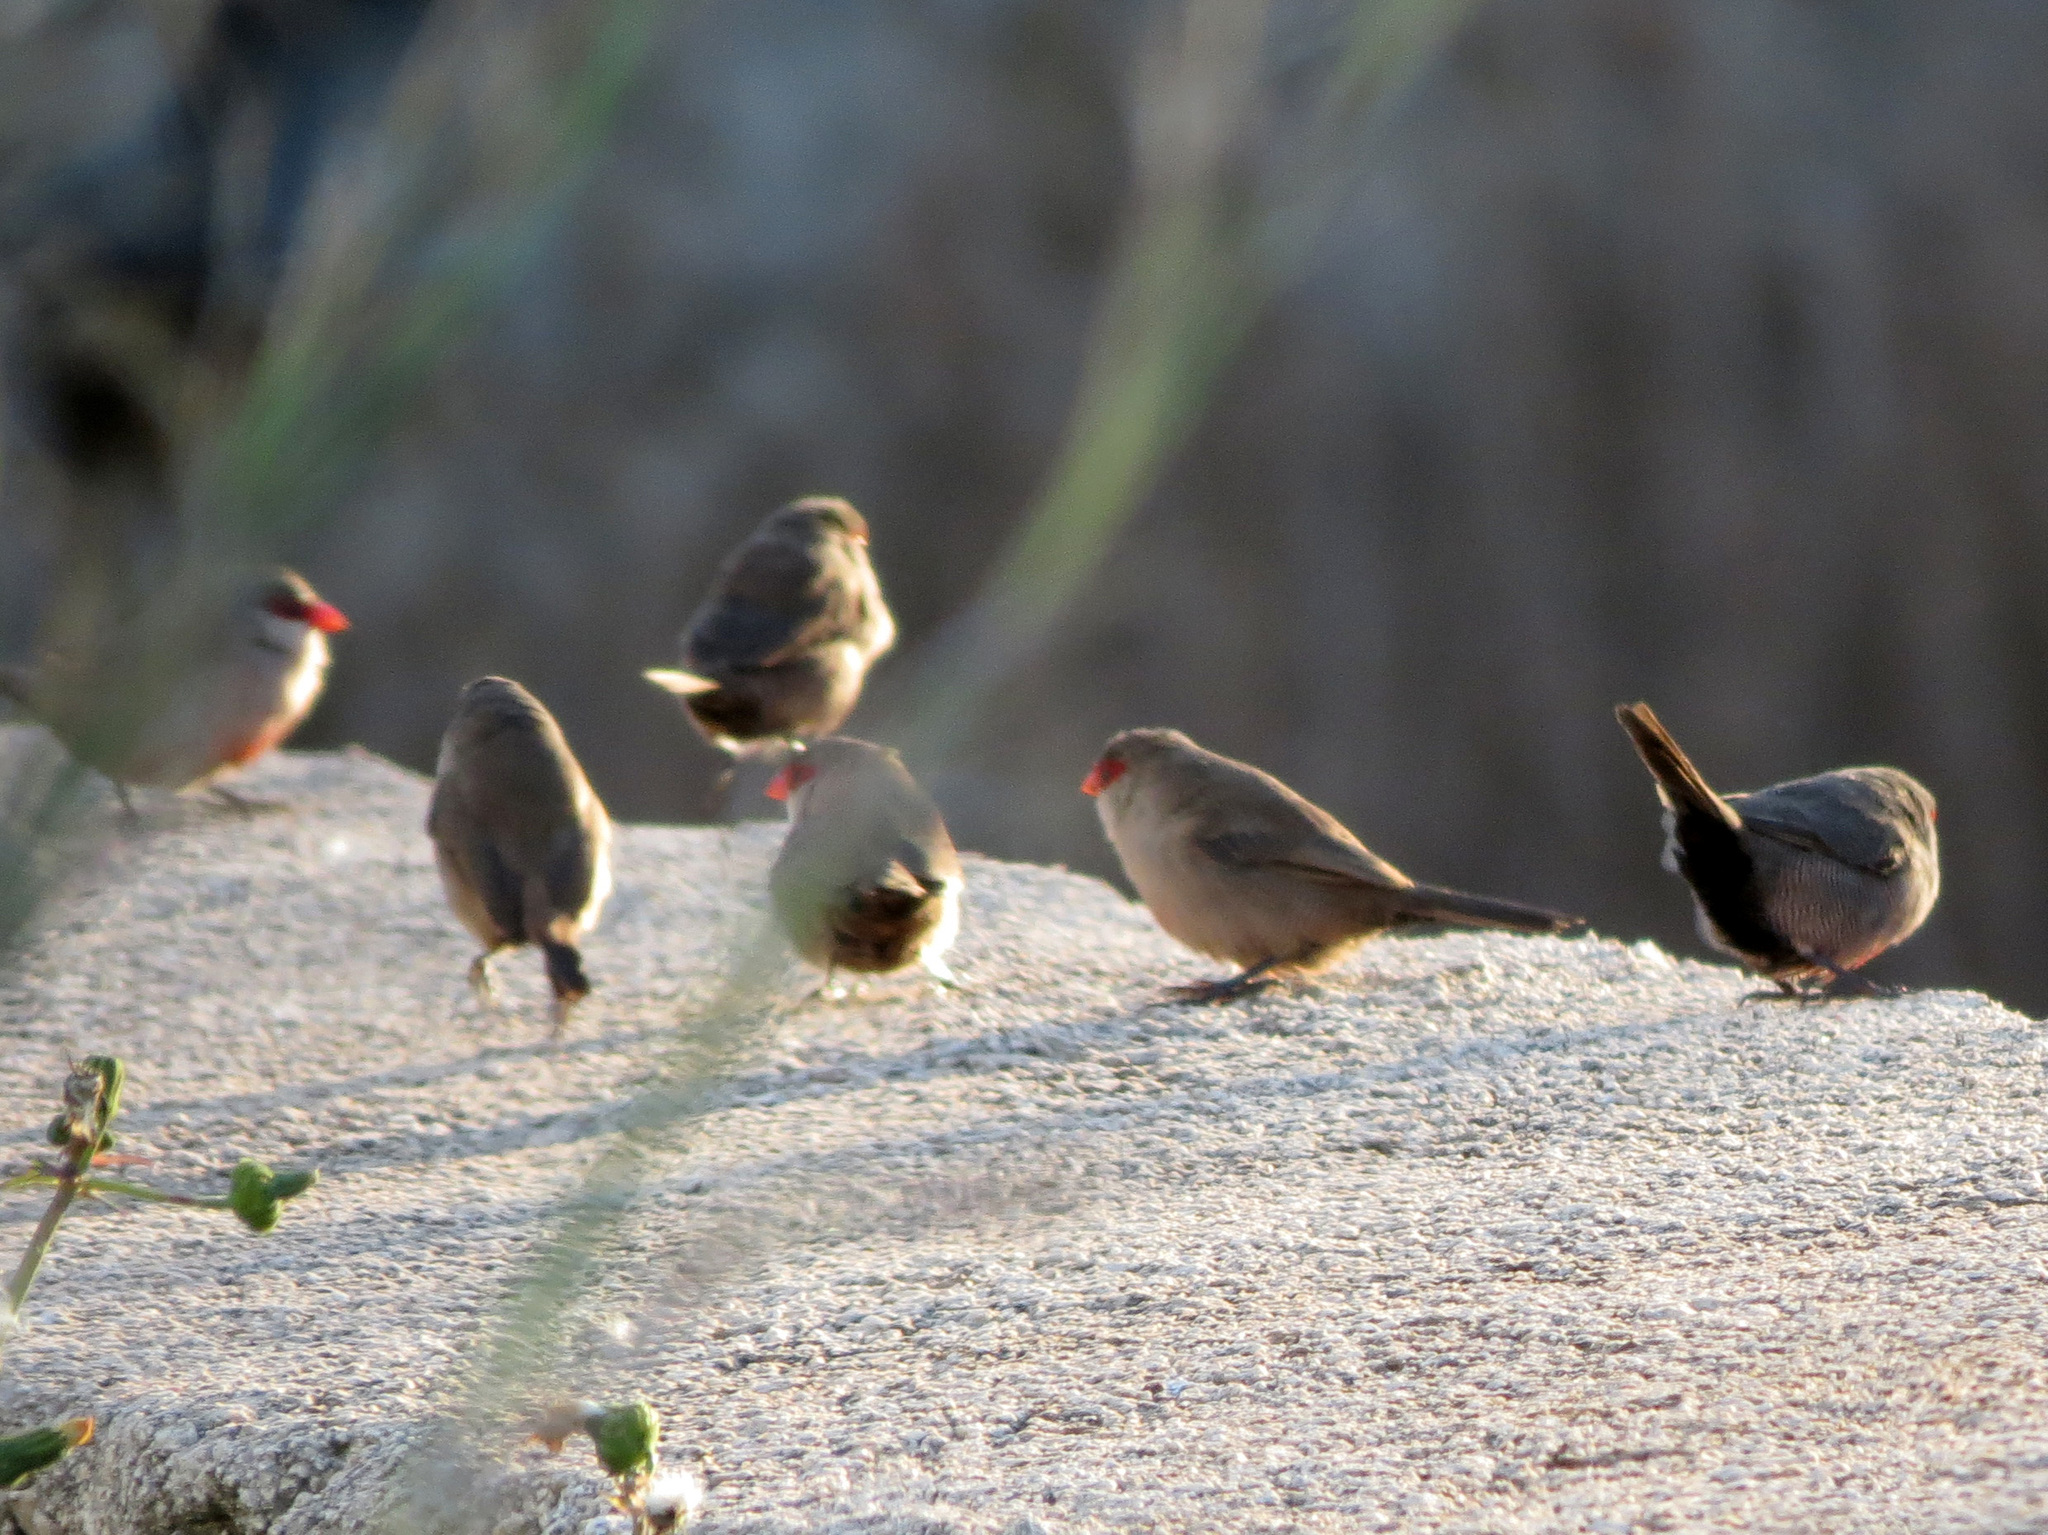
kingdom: Animalia
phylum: Chordata
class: Aves
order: Passeriformes
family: Estrildidae
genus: Estrilda
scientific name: Estrilda astrild
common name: Common waxbill
